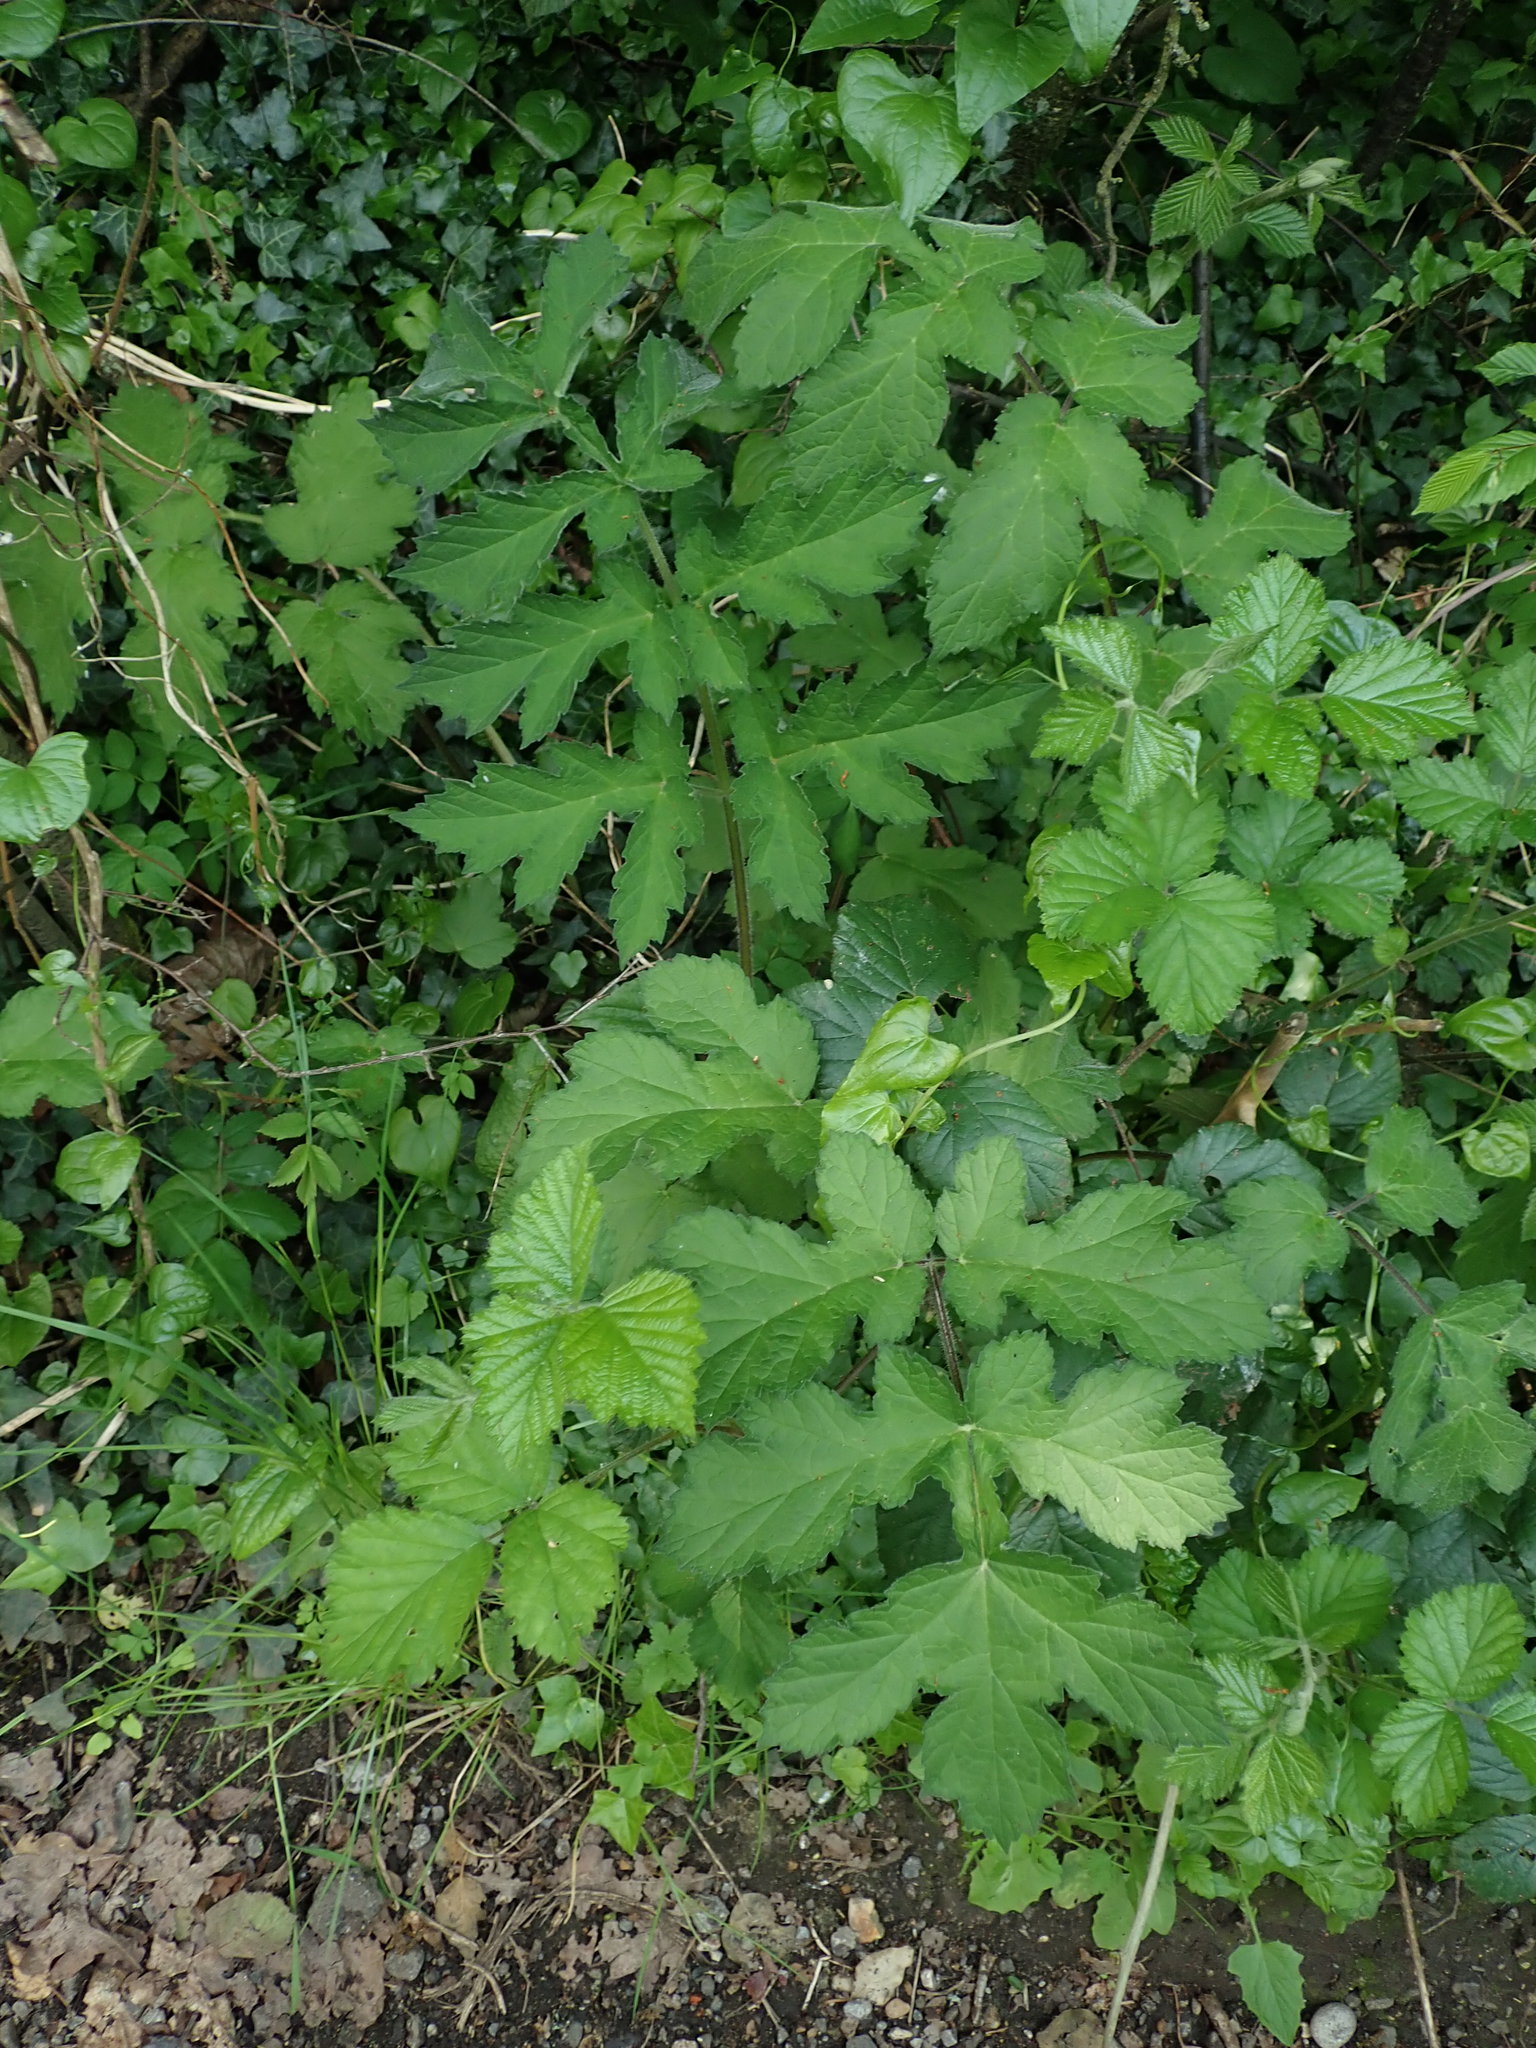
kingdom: Plantae
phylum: Tracheophyta
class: Magnoliopsida
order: Apiales
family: Apiaceae
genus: Heracleum
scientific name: Heracleum sphondylium
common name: Hogweed
